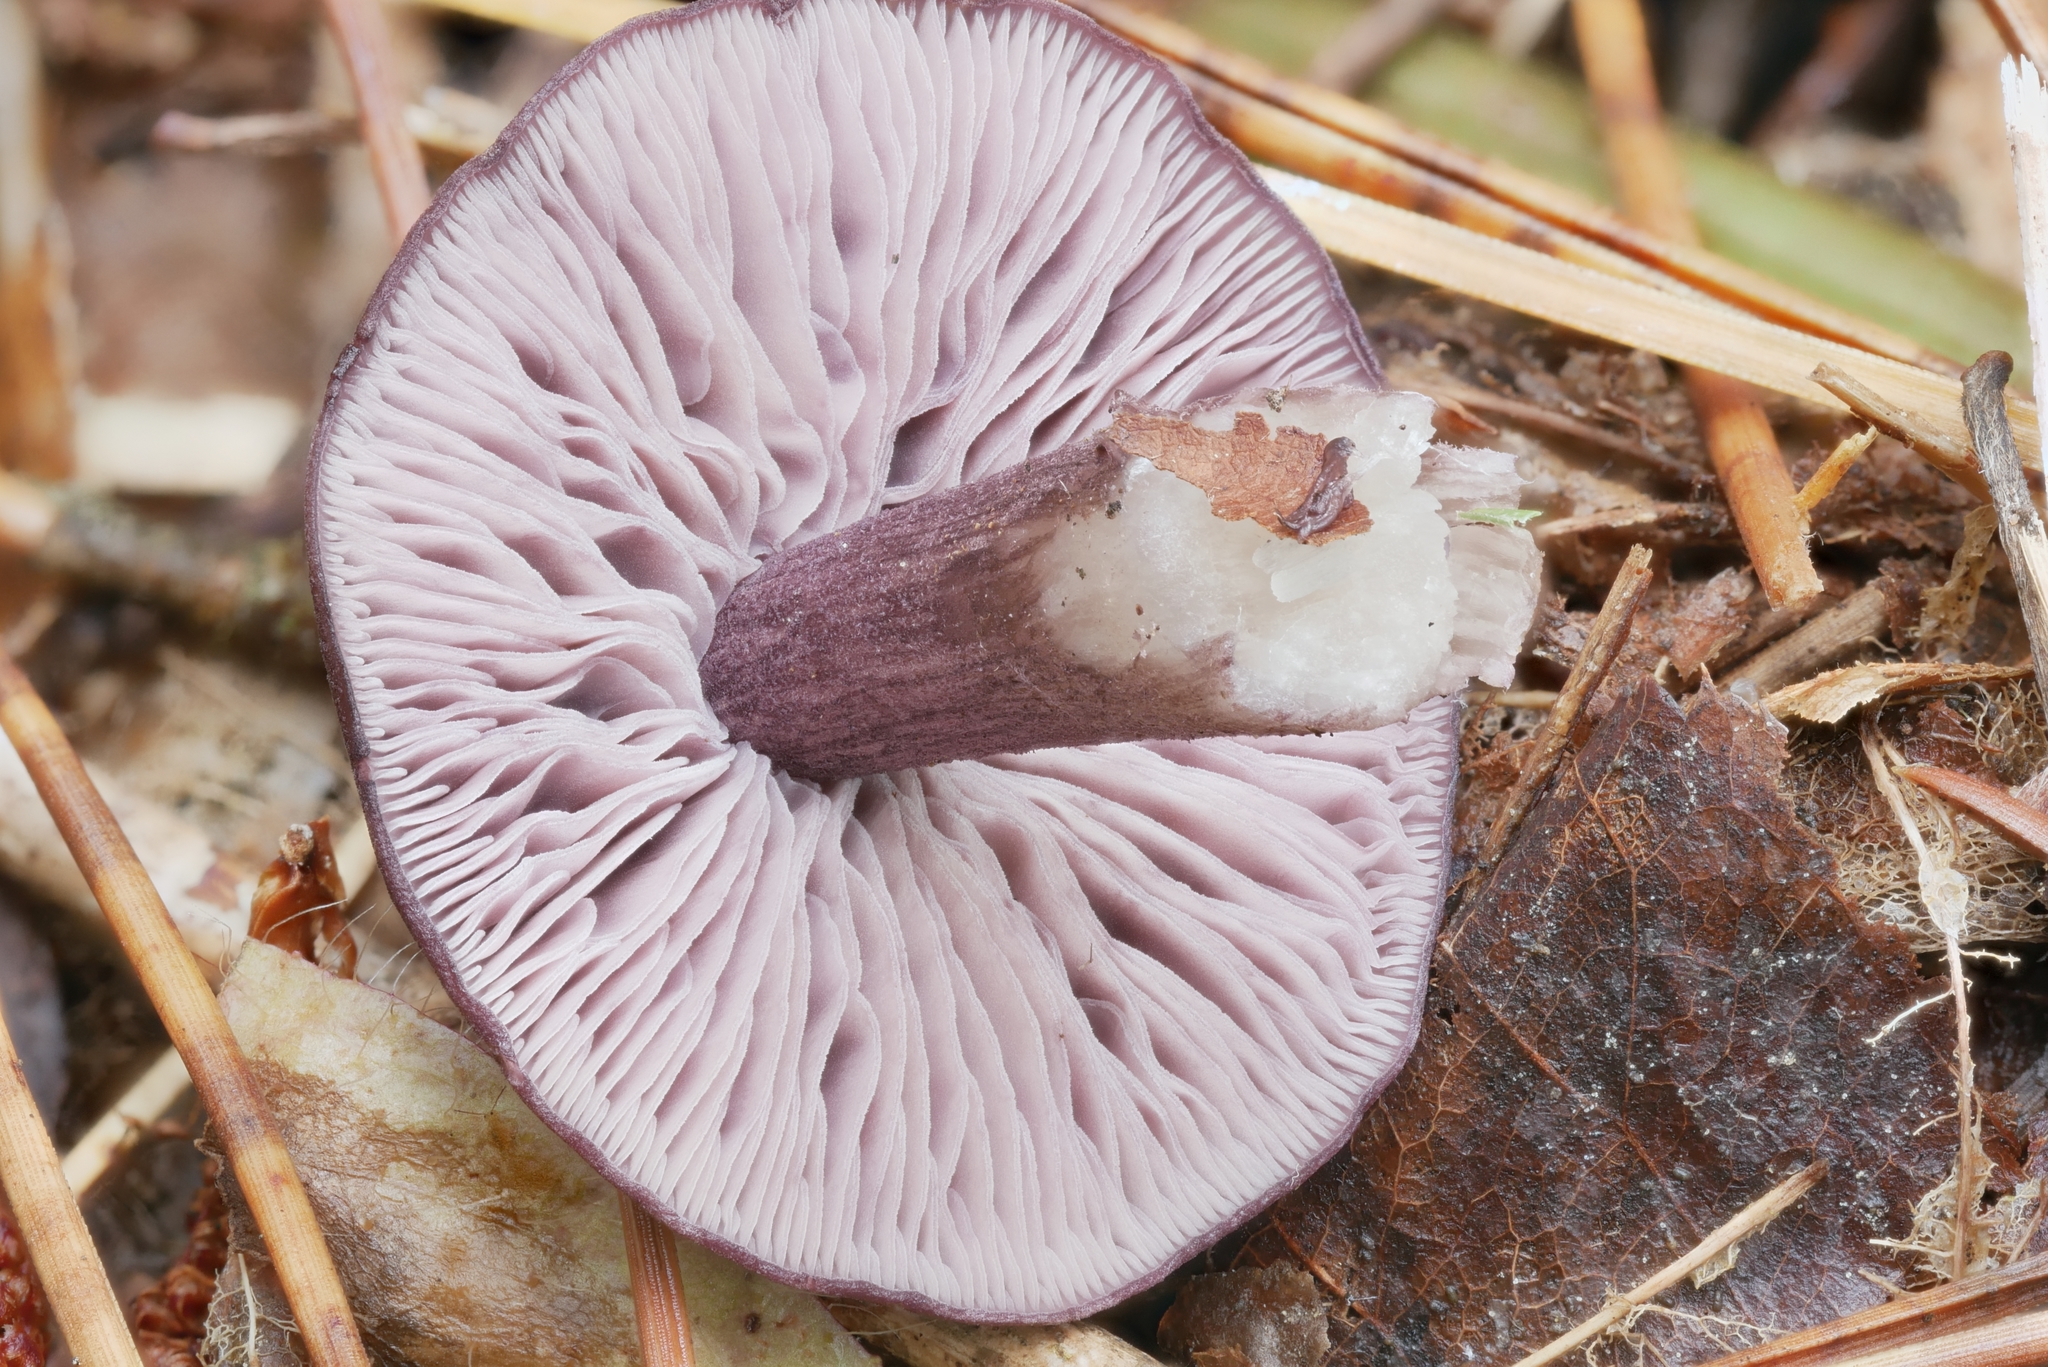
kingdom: Fungi
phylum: Basidiomycota
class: Agaricomycetes
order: Agaricales
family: Entolomataceae
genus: Entoloma
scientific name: Entoloma cyaneum
